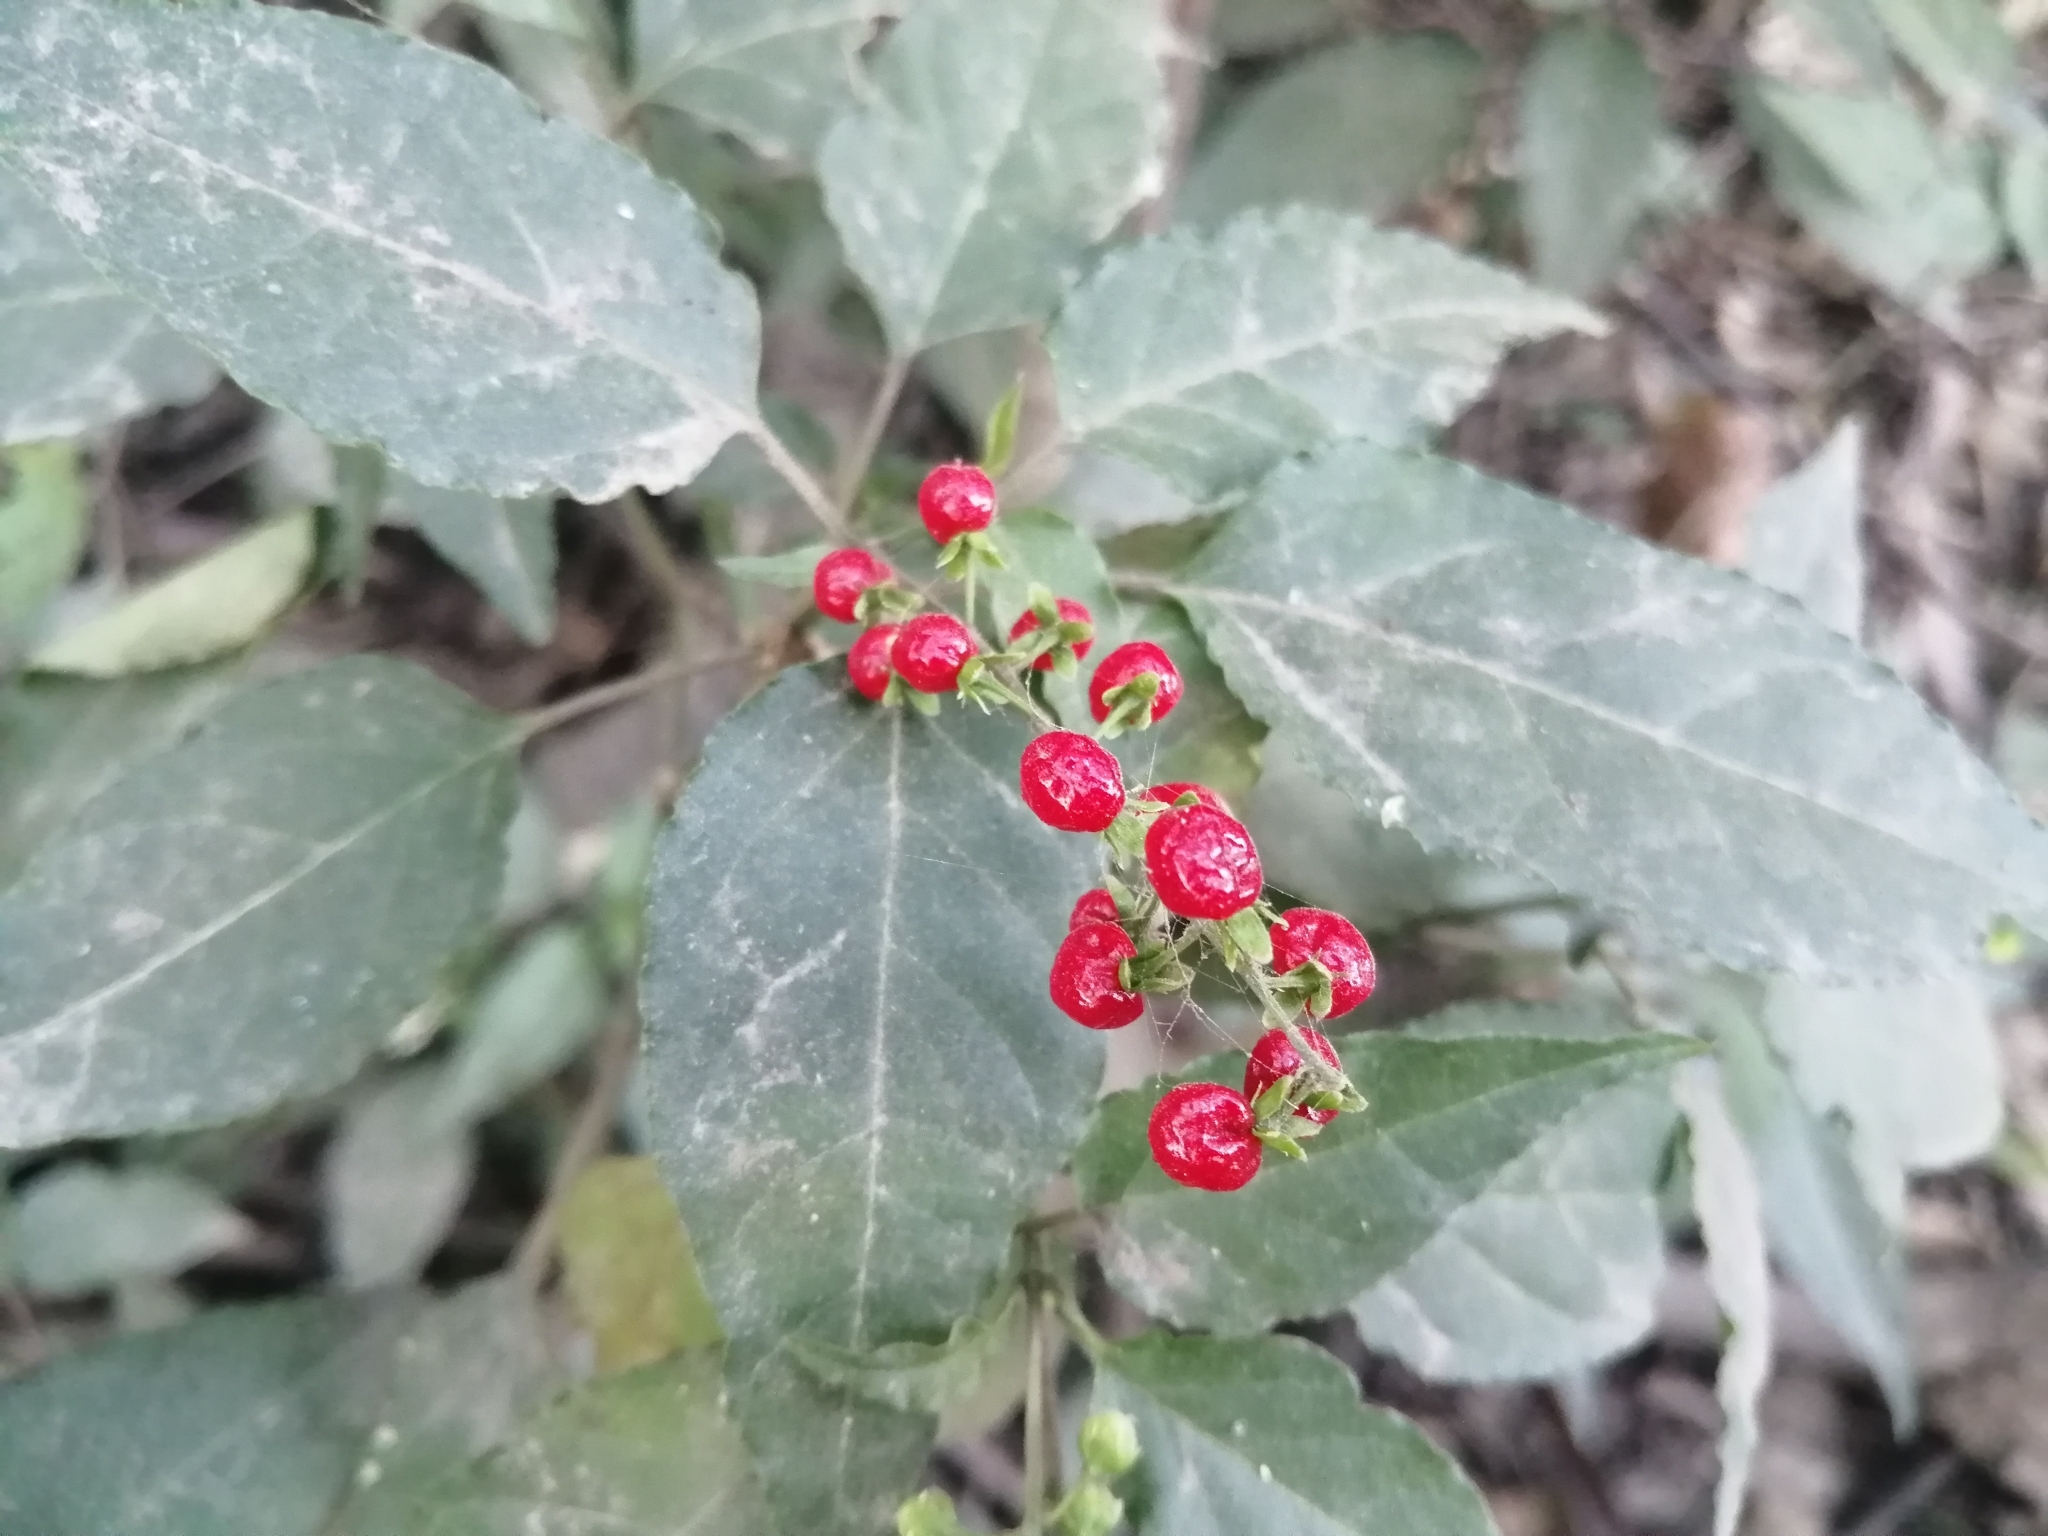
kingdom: Plantae
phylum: Tracheophyta
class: Magnoliopsida
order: Caryophyllales
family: Phytolaccaceae
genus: Rivina
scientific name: Rivina humilis
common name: Rougeplant
